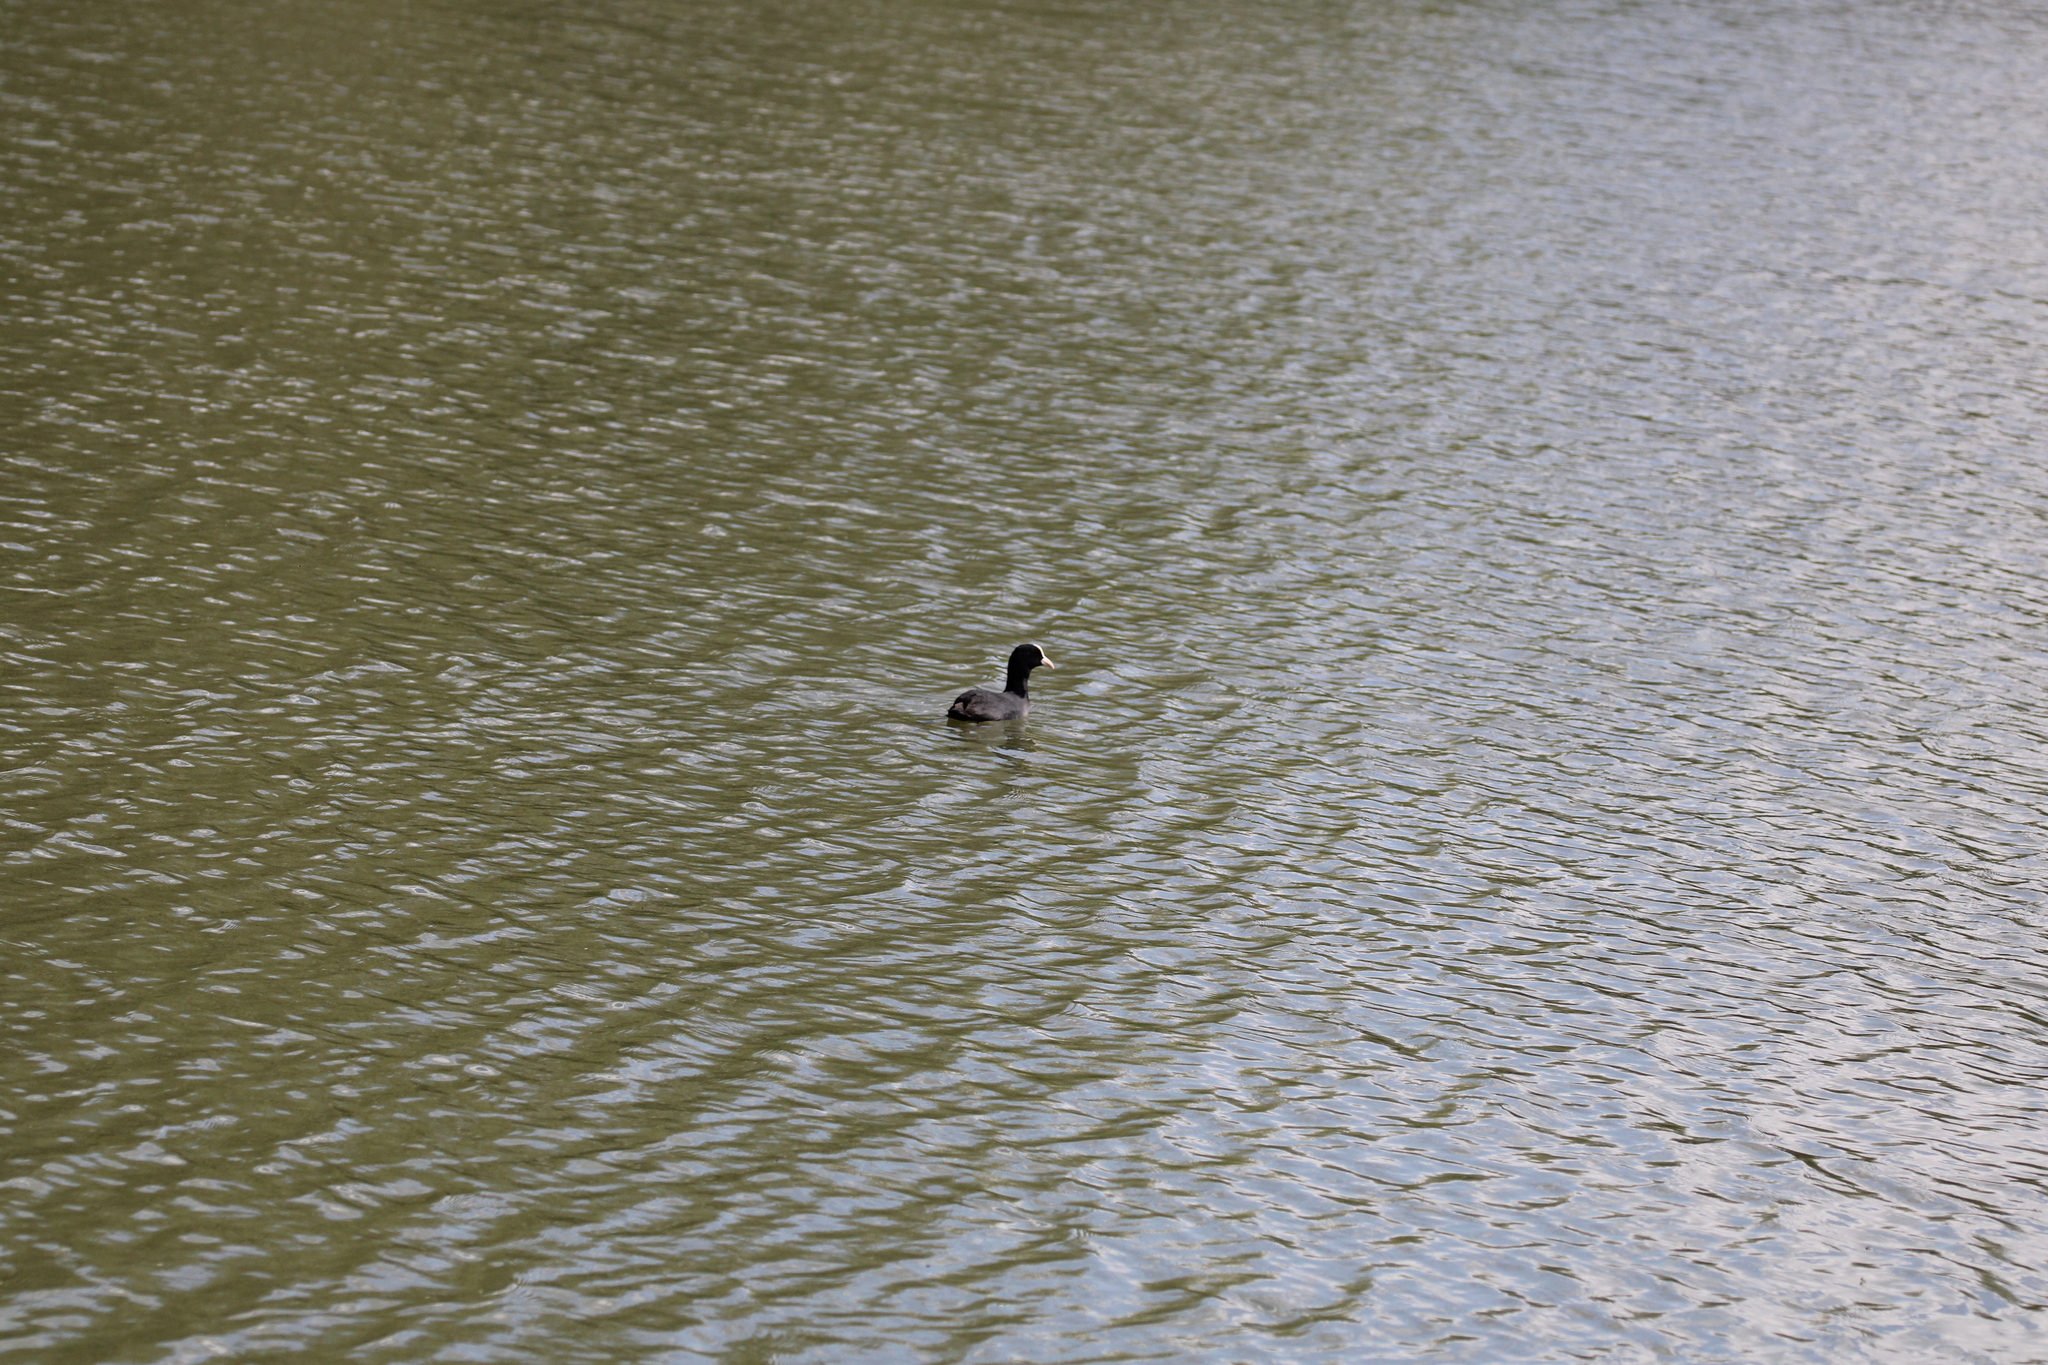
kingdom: Animalia
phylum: Chordata
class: Aves
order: Gruiformes
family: Rallidae
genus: Fulica
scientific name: Fulica atra
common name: Eurasian coot
